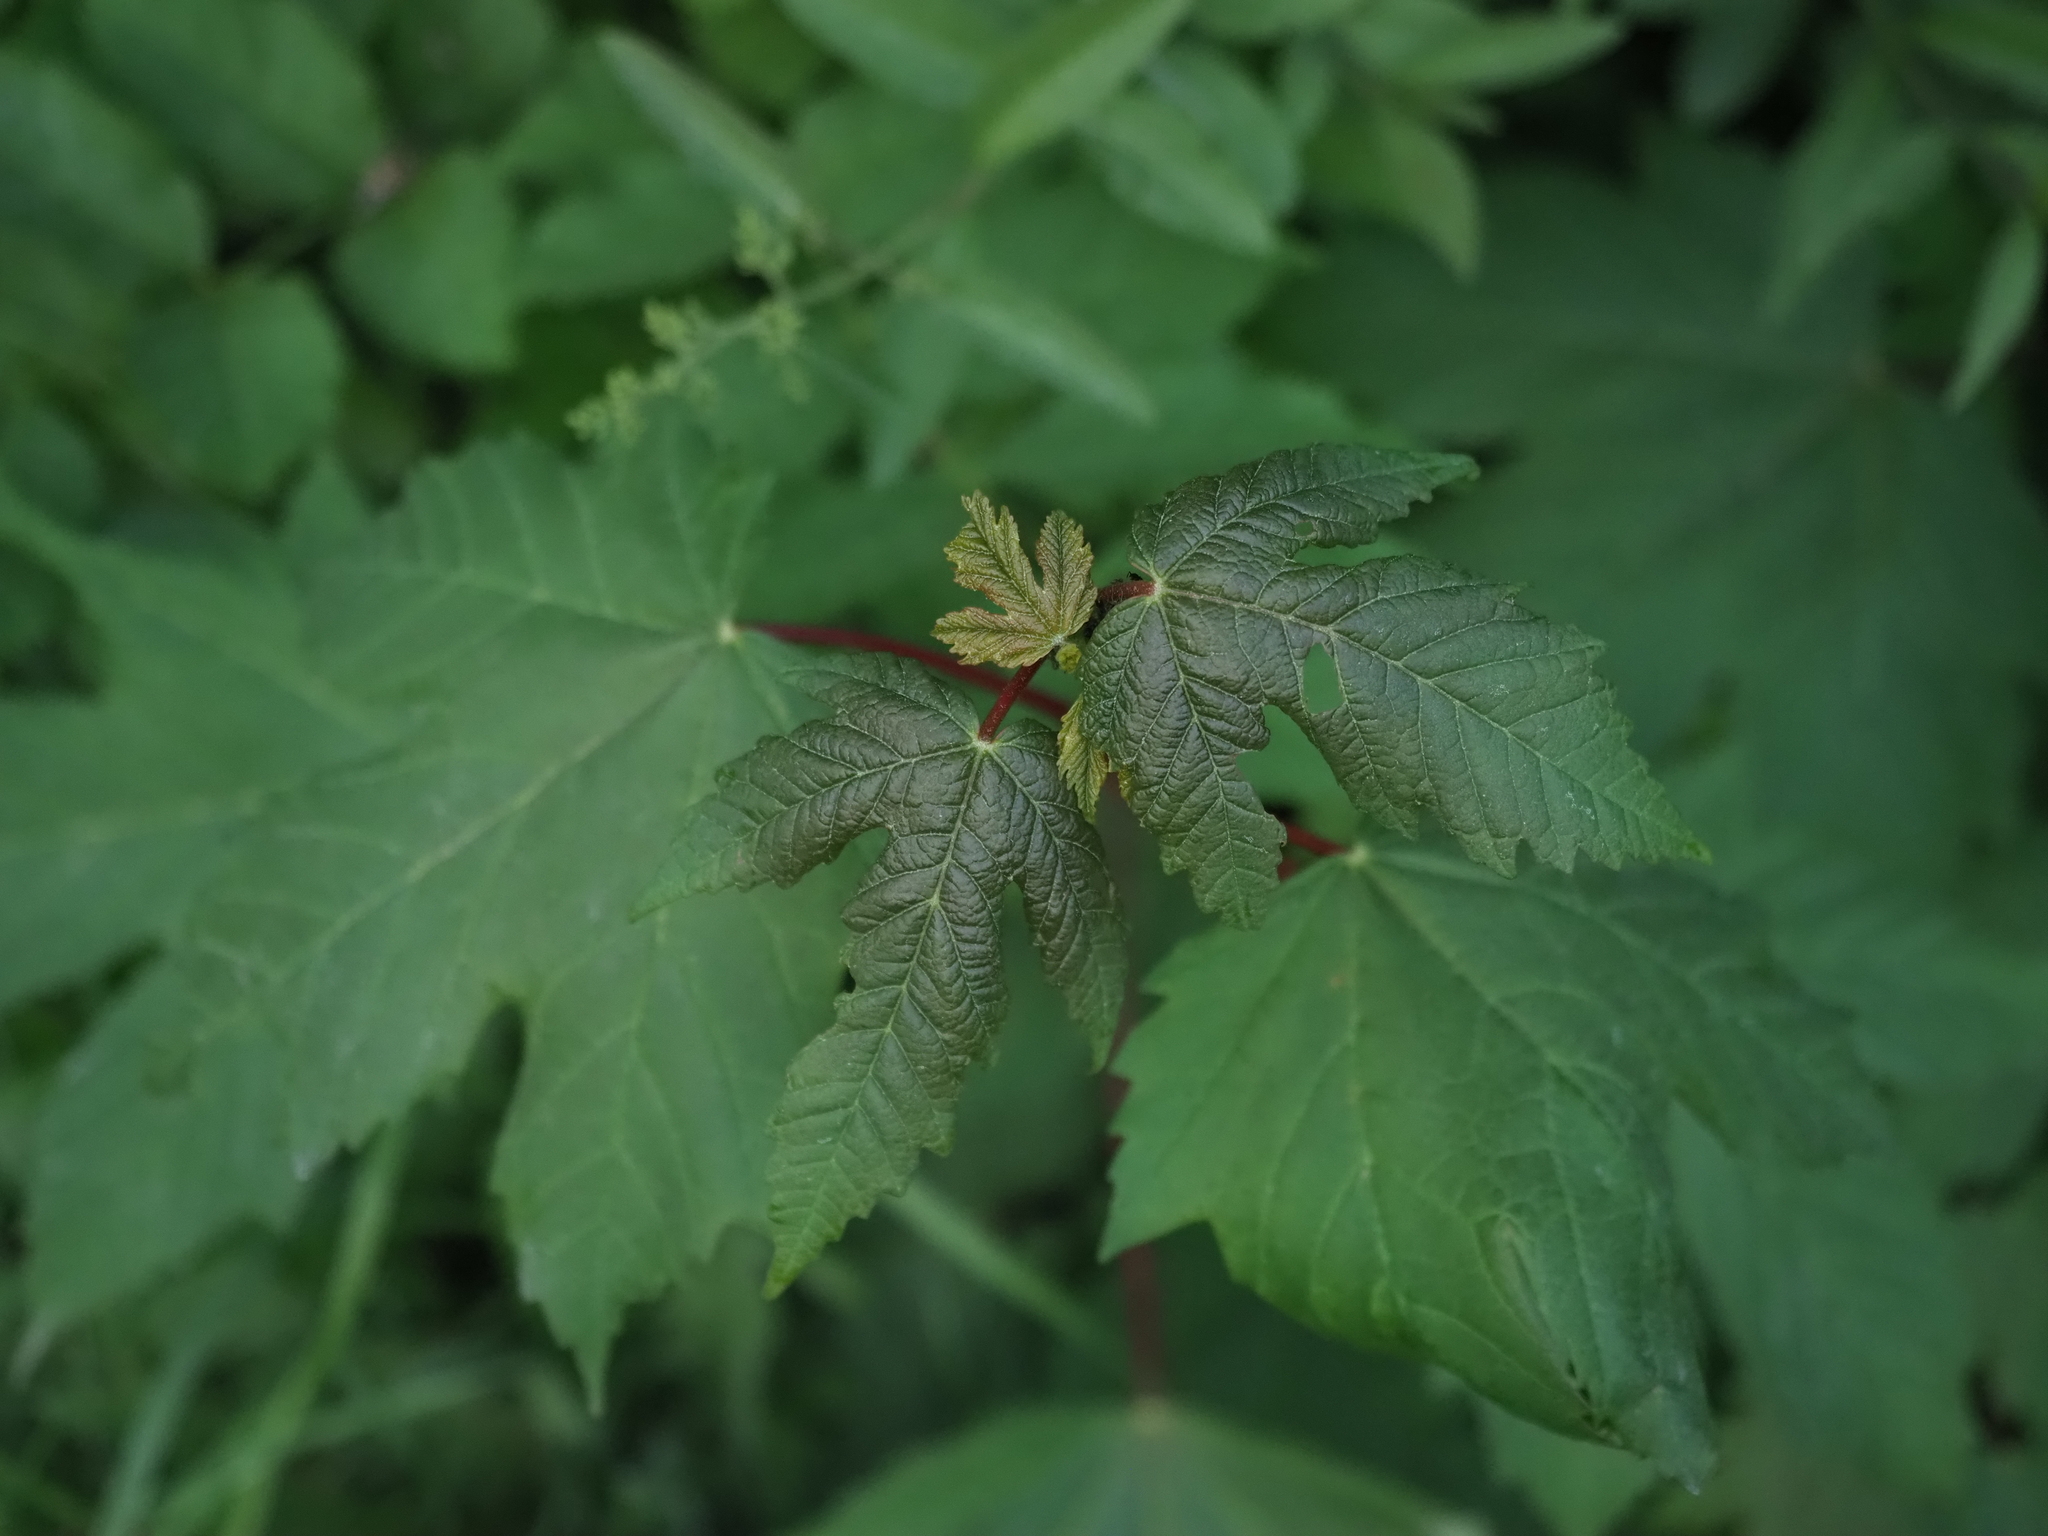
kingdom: Plantae
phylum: Tracheophyta
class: Magnoliopsida
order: Sapindales
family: Sapindaceae
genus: Acer
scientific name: Acer pseudoplatanus
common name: Sycamore
